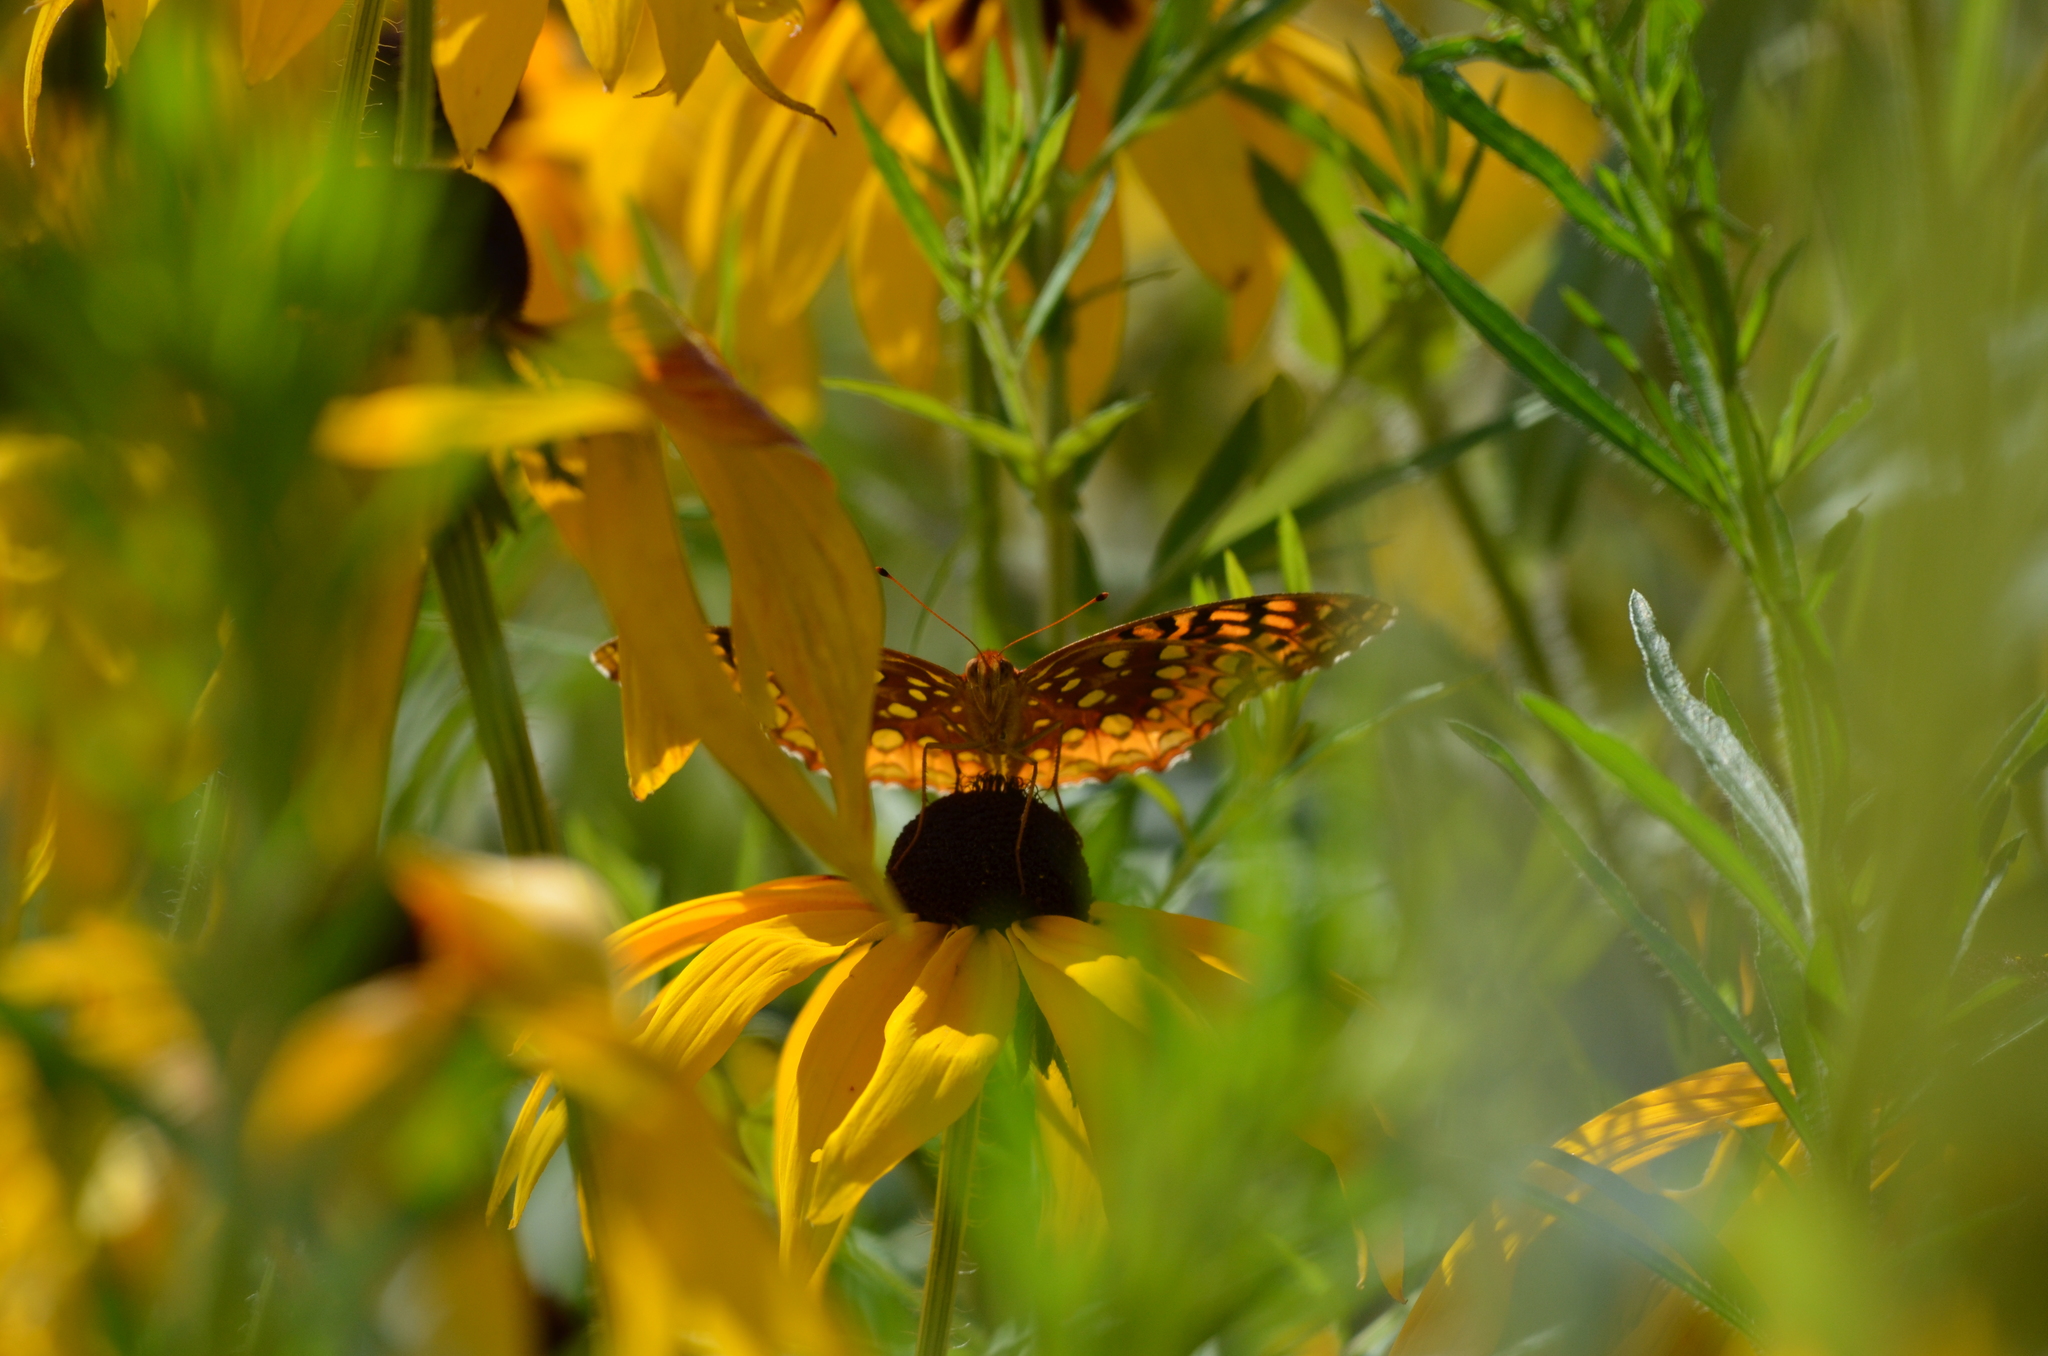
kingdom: Animalia
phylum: Arthropoda
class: Insecta
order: Lepidoptera
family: Nymphalidae
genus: Speyeria
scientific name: Speyeria cybele
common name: Great spangled fritillary
